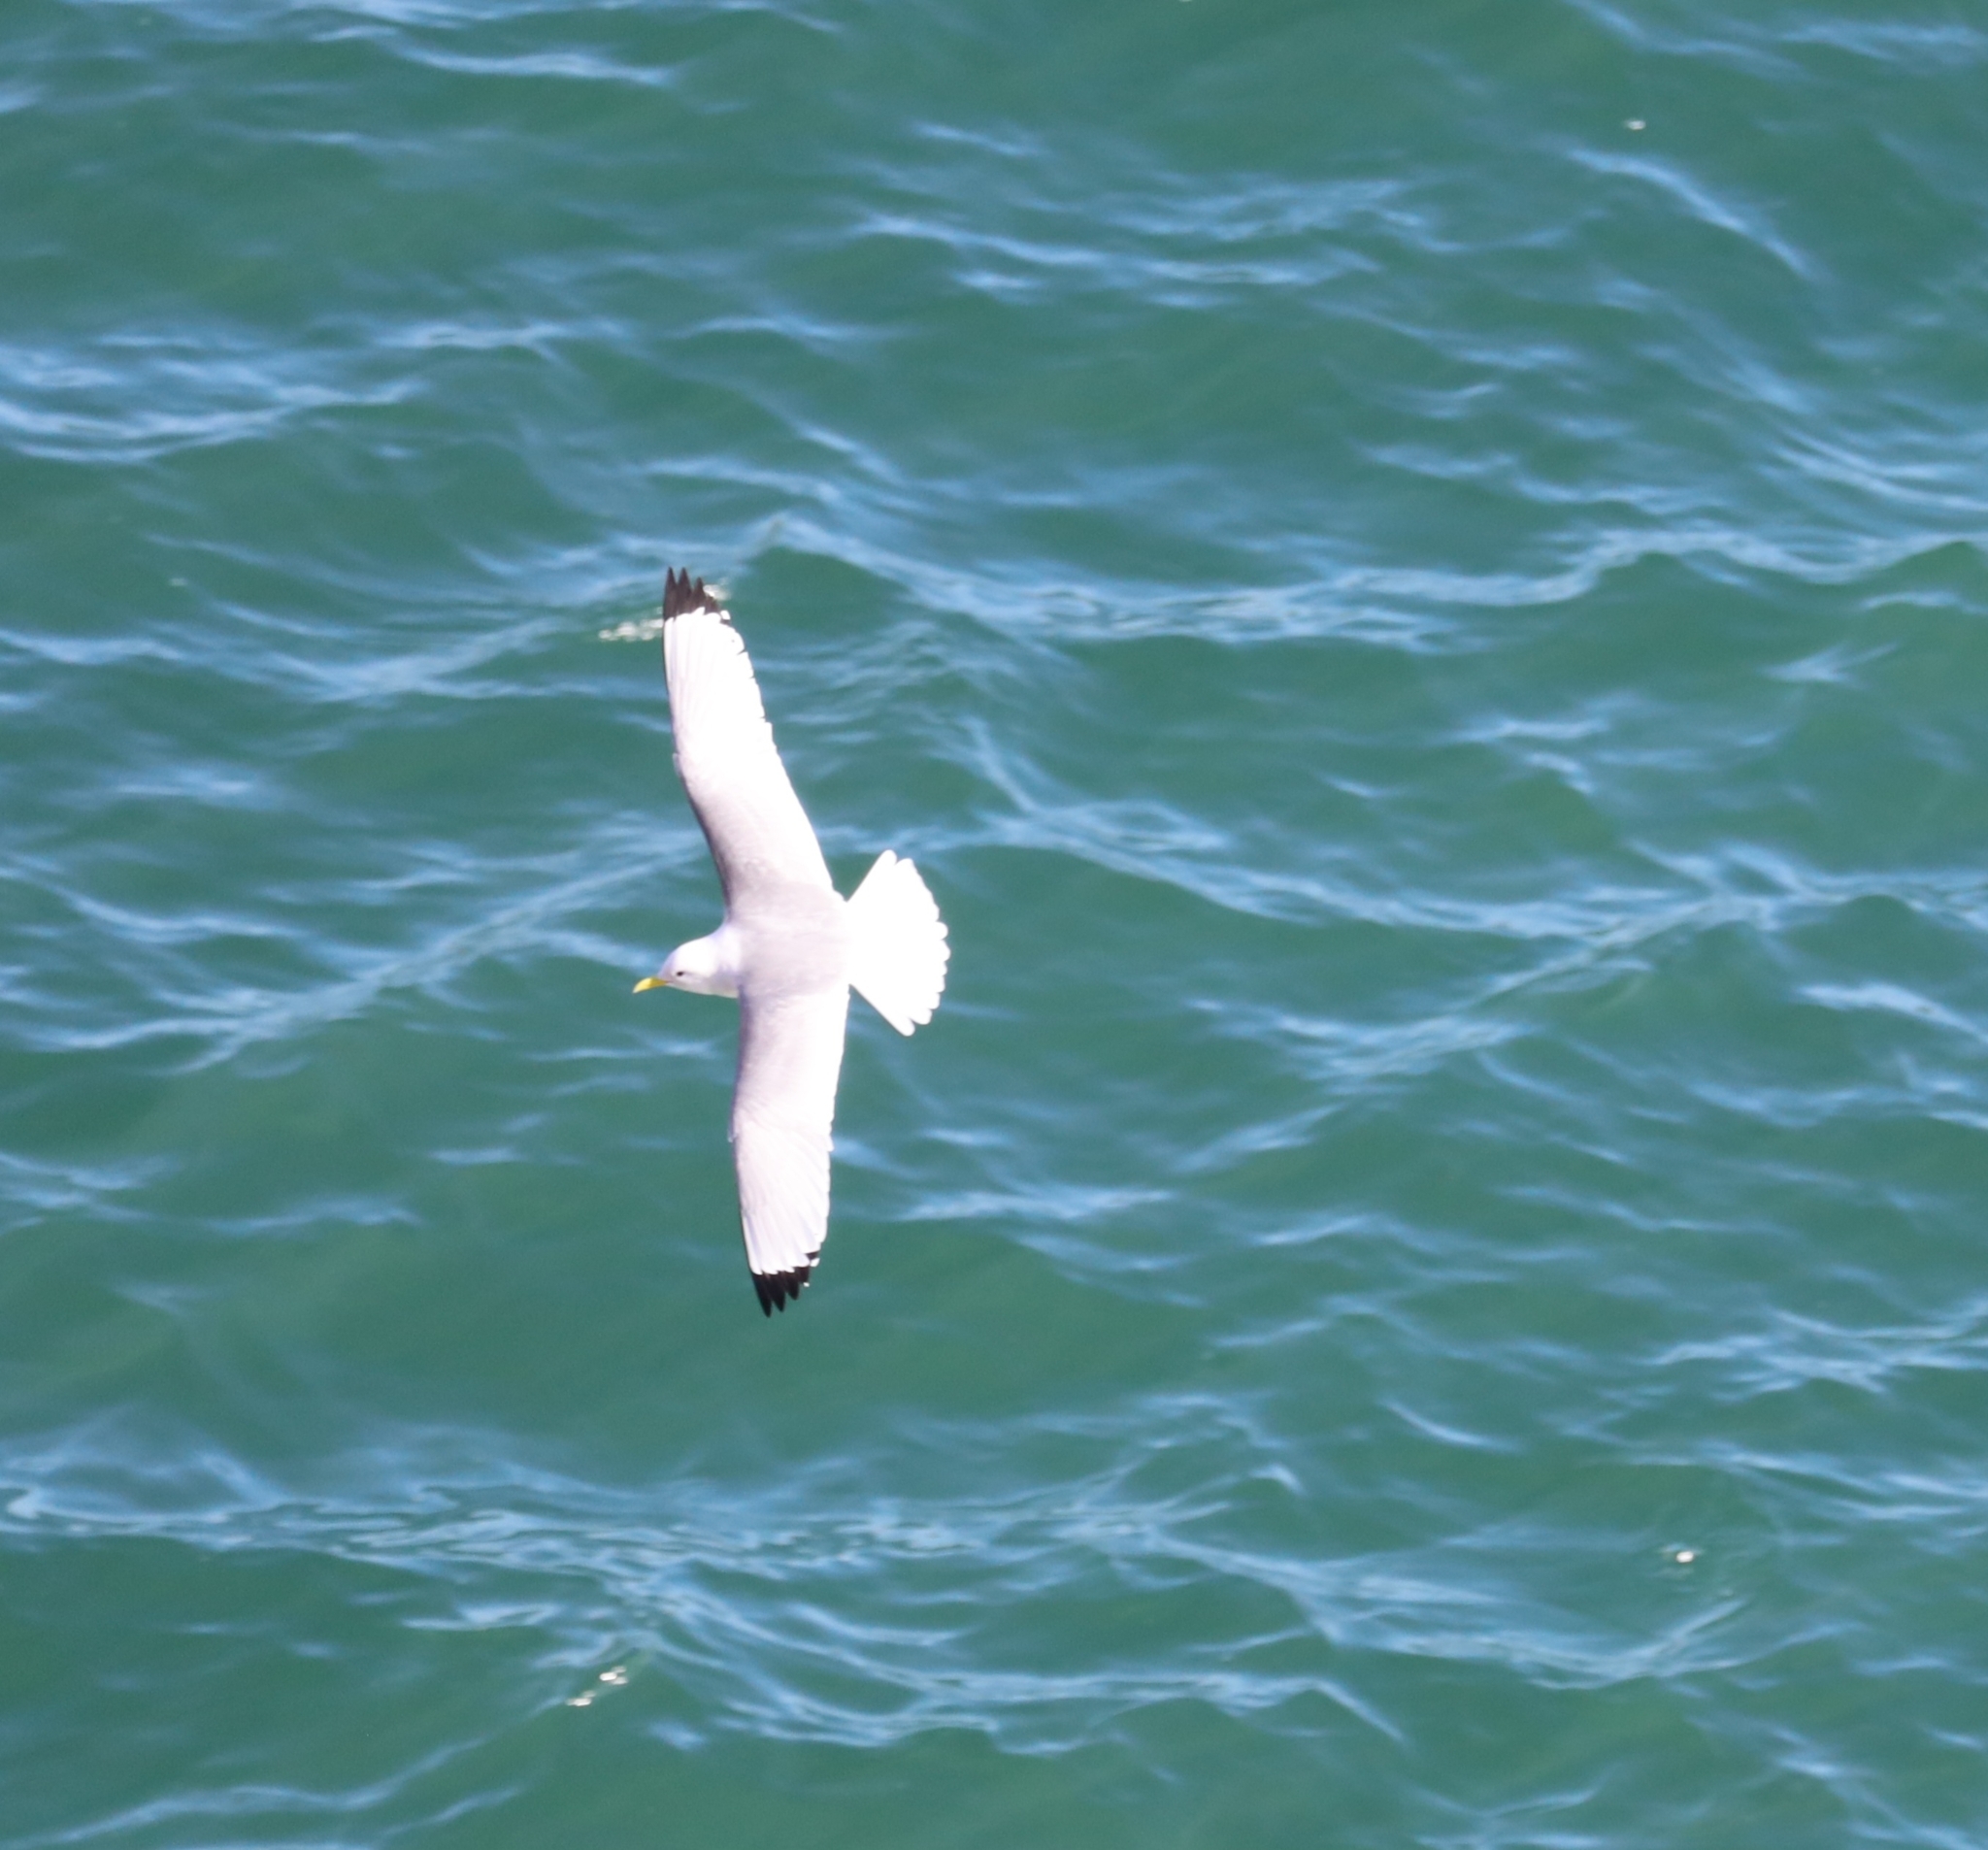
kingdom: Animalia
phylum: Chordata
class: Aves
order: Charadriiformes
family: Laridae
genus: Rissa
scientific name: Rissa tridactyla
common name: Black-legged kittiwake
